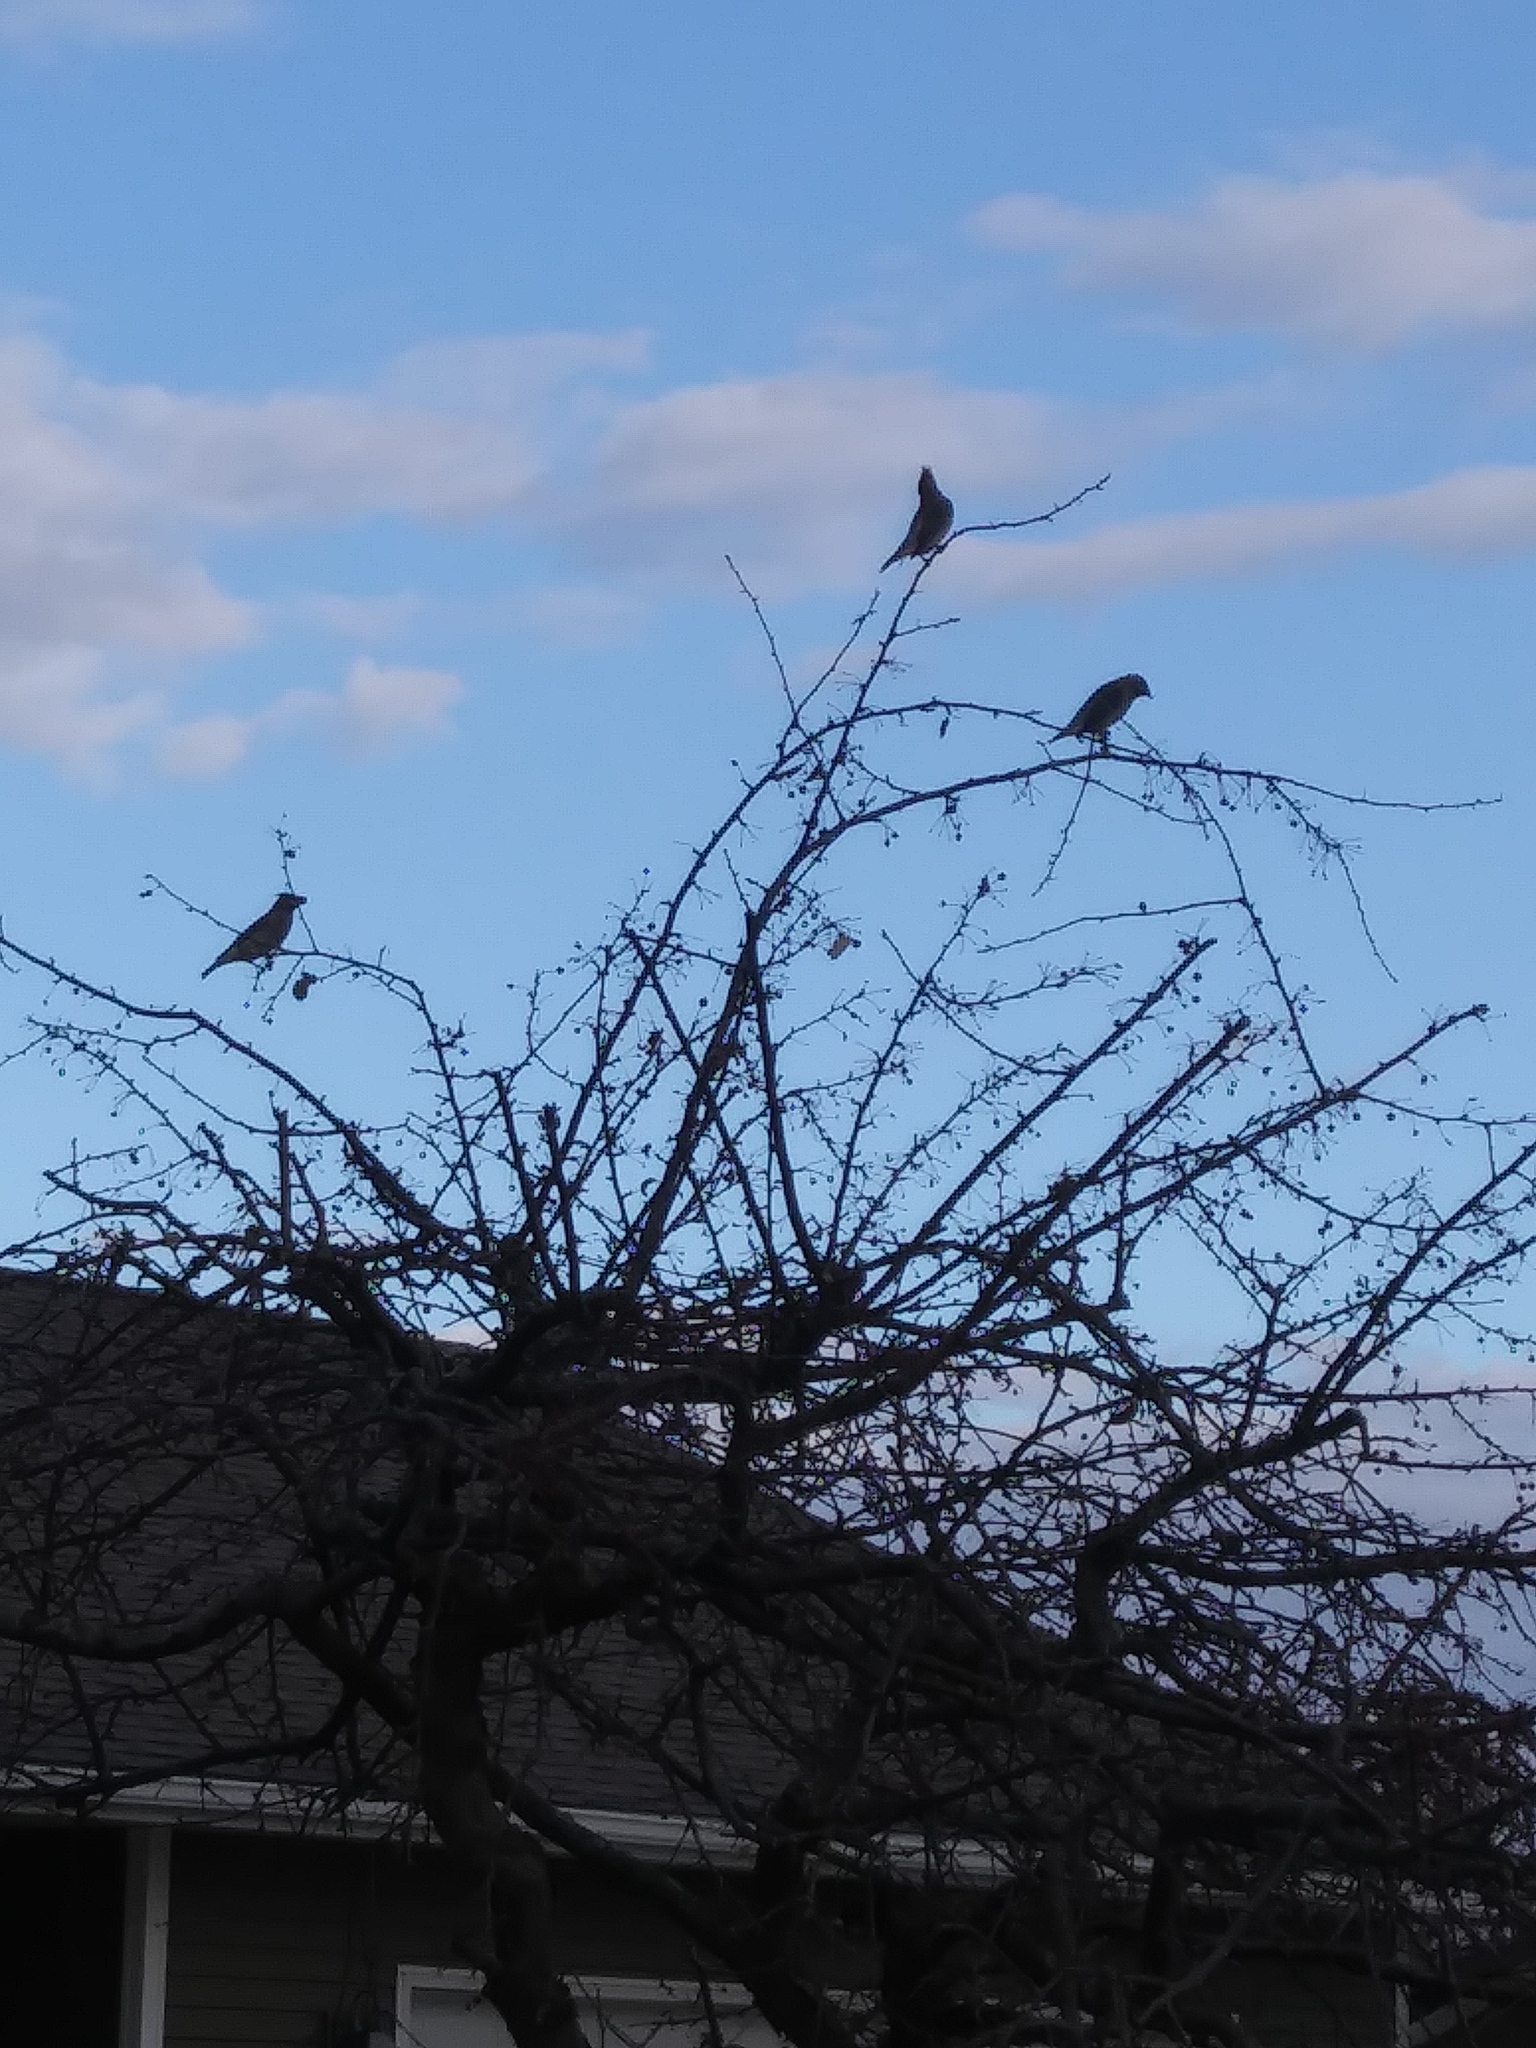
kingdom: Animalia
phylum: Chordata
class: Aves
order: Passeriformes
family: Bombycillidae
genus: Bombycilla
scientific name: Bombycilla cedrorum
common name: Cedar waxwing
